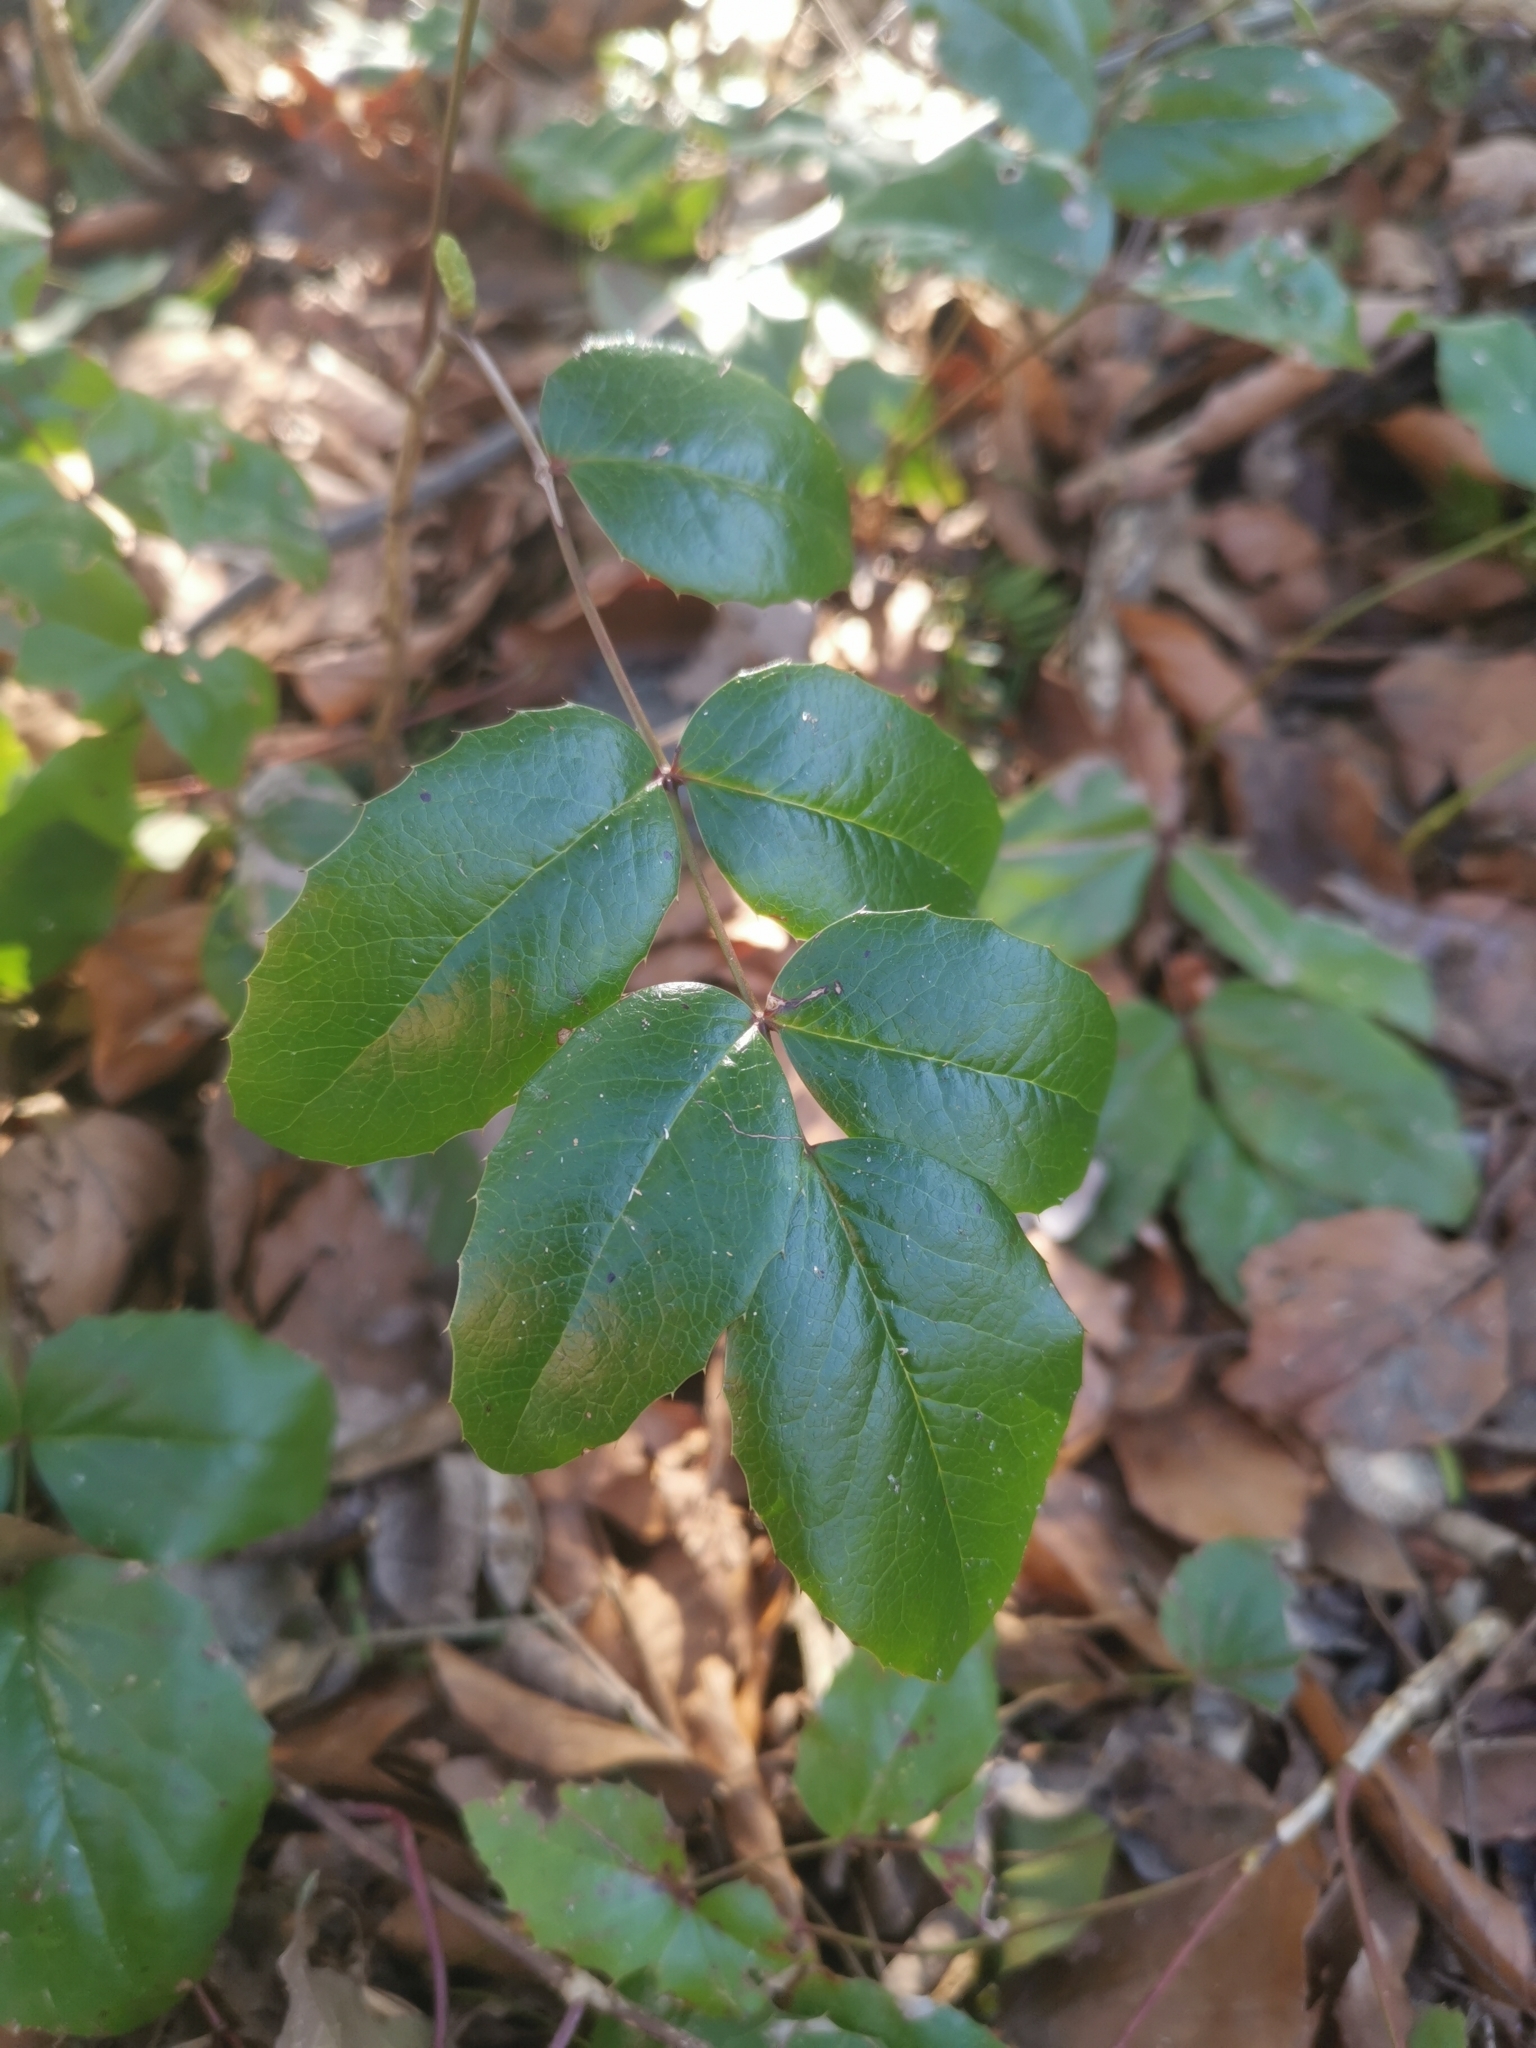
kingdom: Plantae
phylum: Tracheophyta
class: Magnoliopsida
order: Ranunculales
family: Berberidaceae
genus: Mahonia
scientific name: Mahonia aquifolium
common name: Oregon-grape
